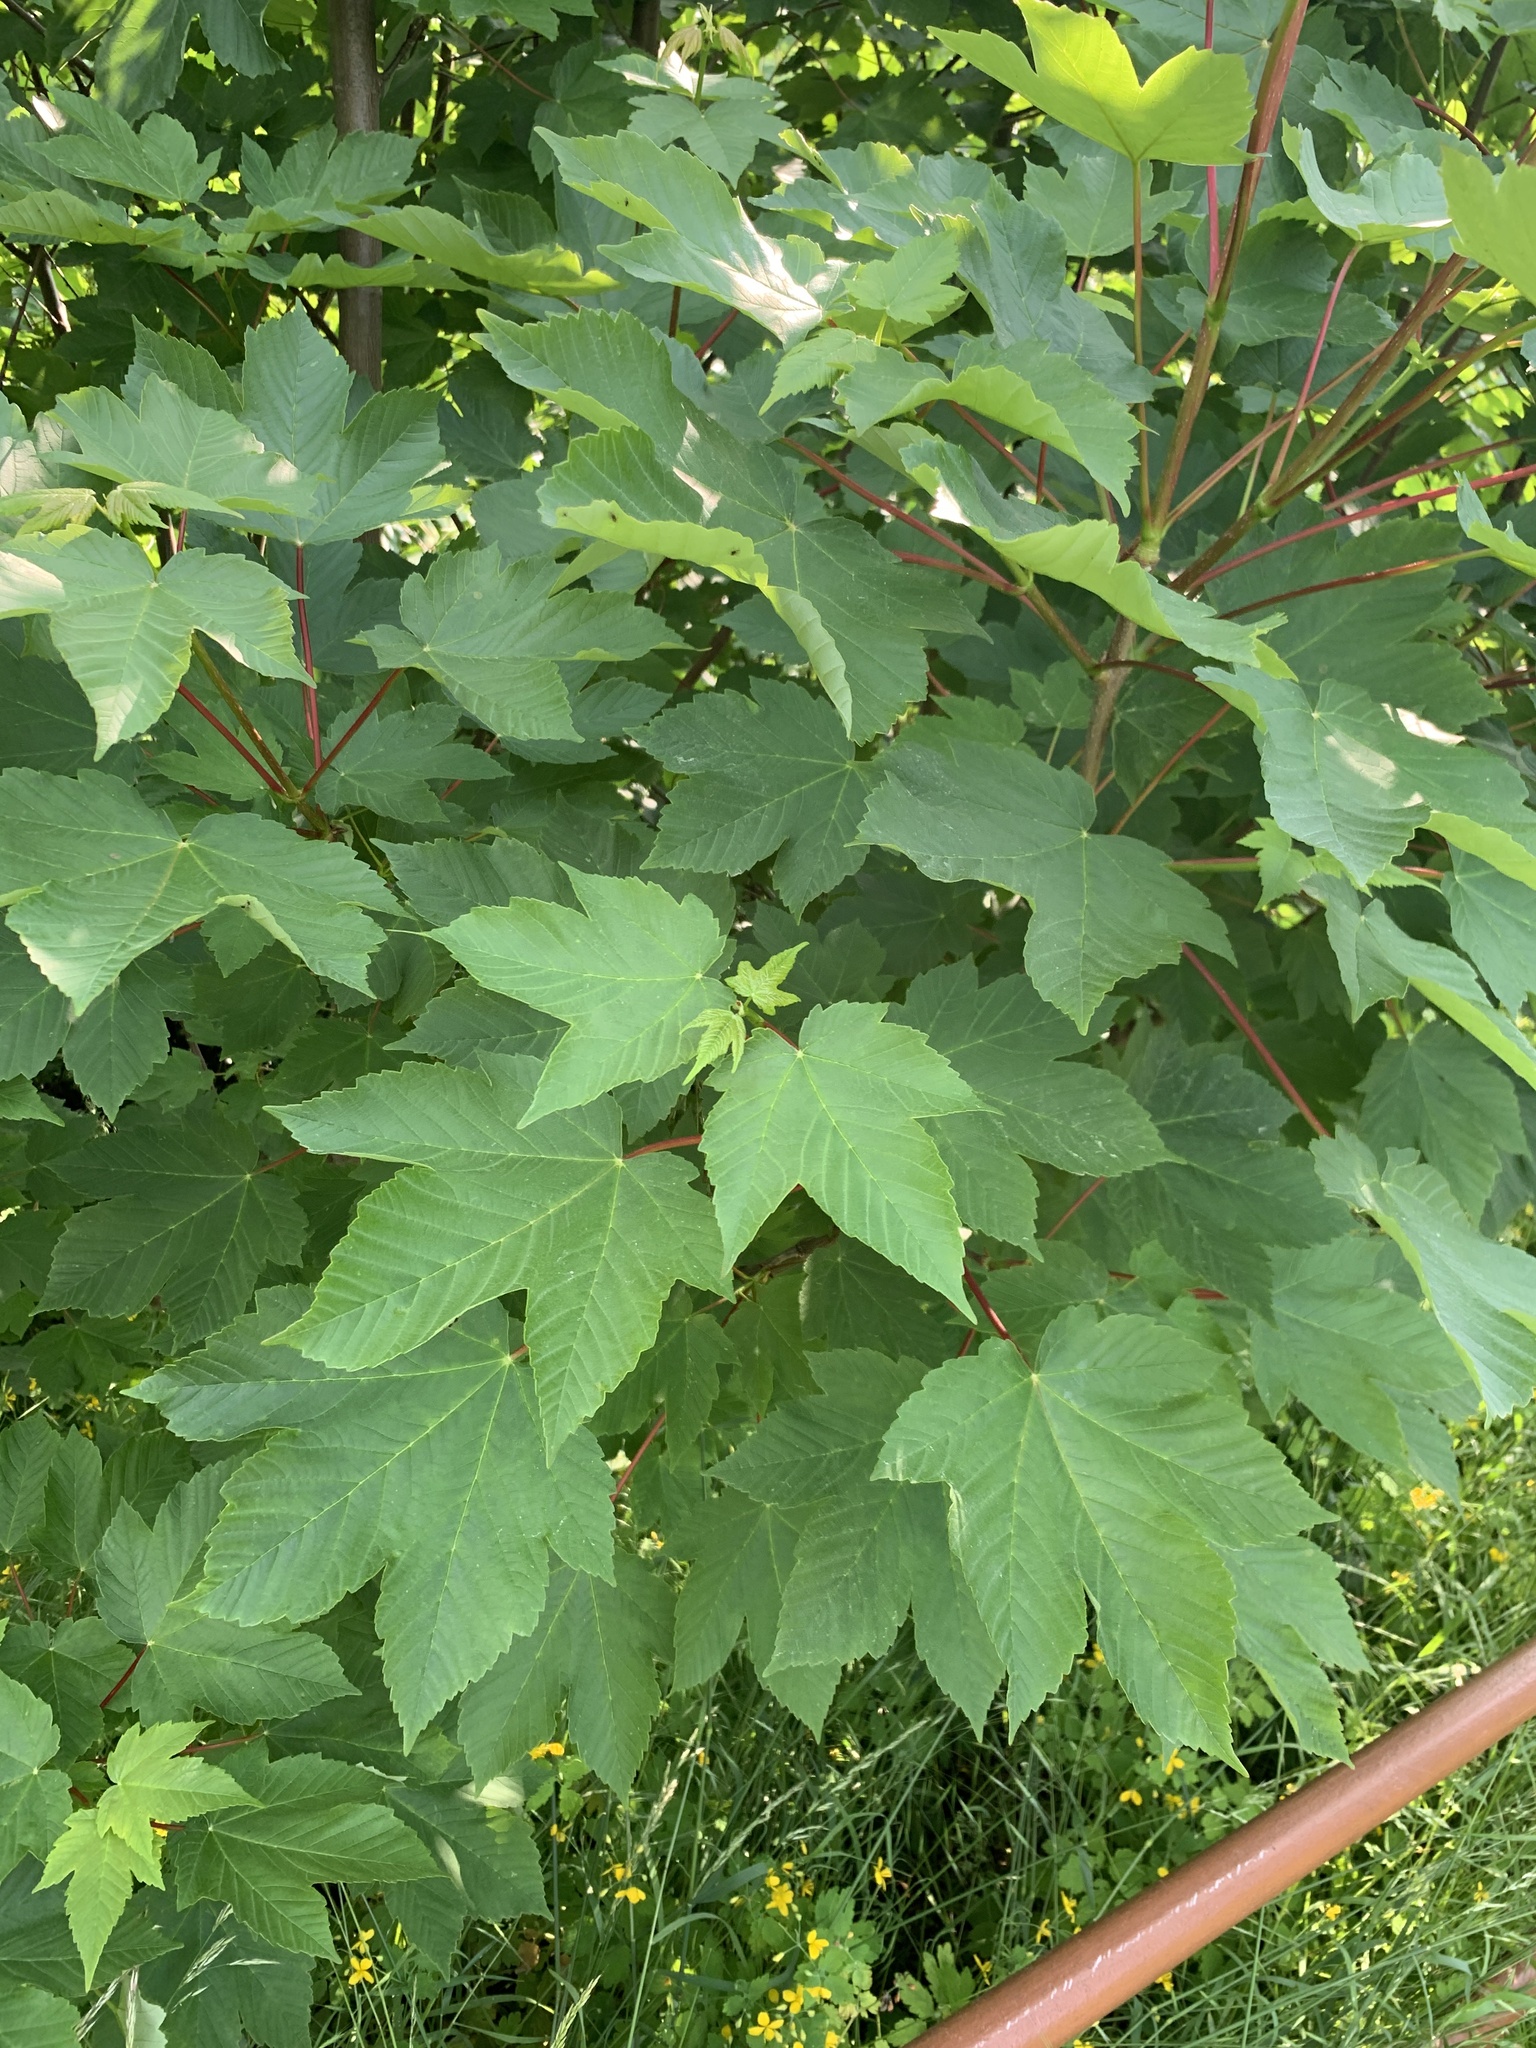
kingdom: Plantae
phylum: Tracheophyta
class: Magnoliopsida
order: Sapindales
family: Sapindaceae
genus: Acer
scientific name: Acer pseudoplatanus
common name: Sycamore
